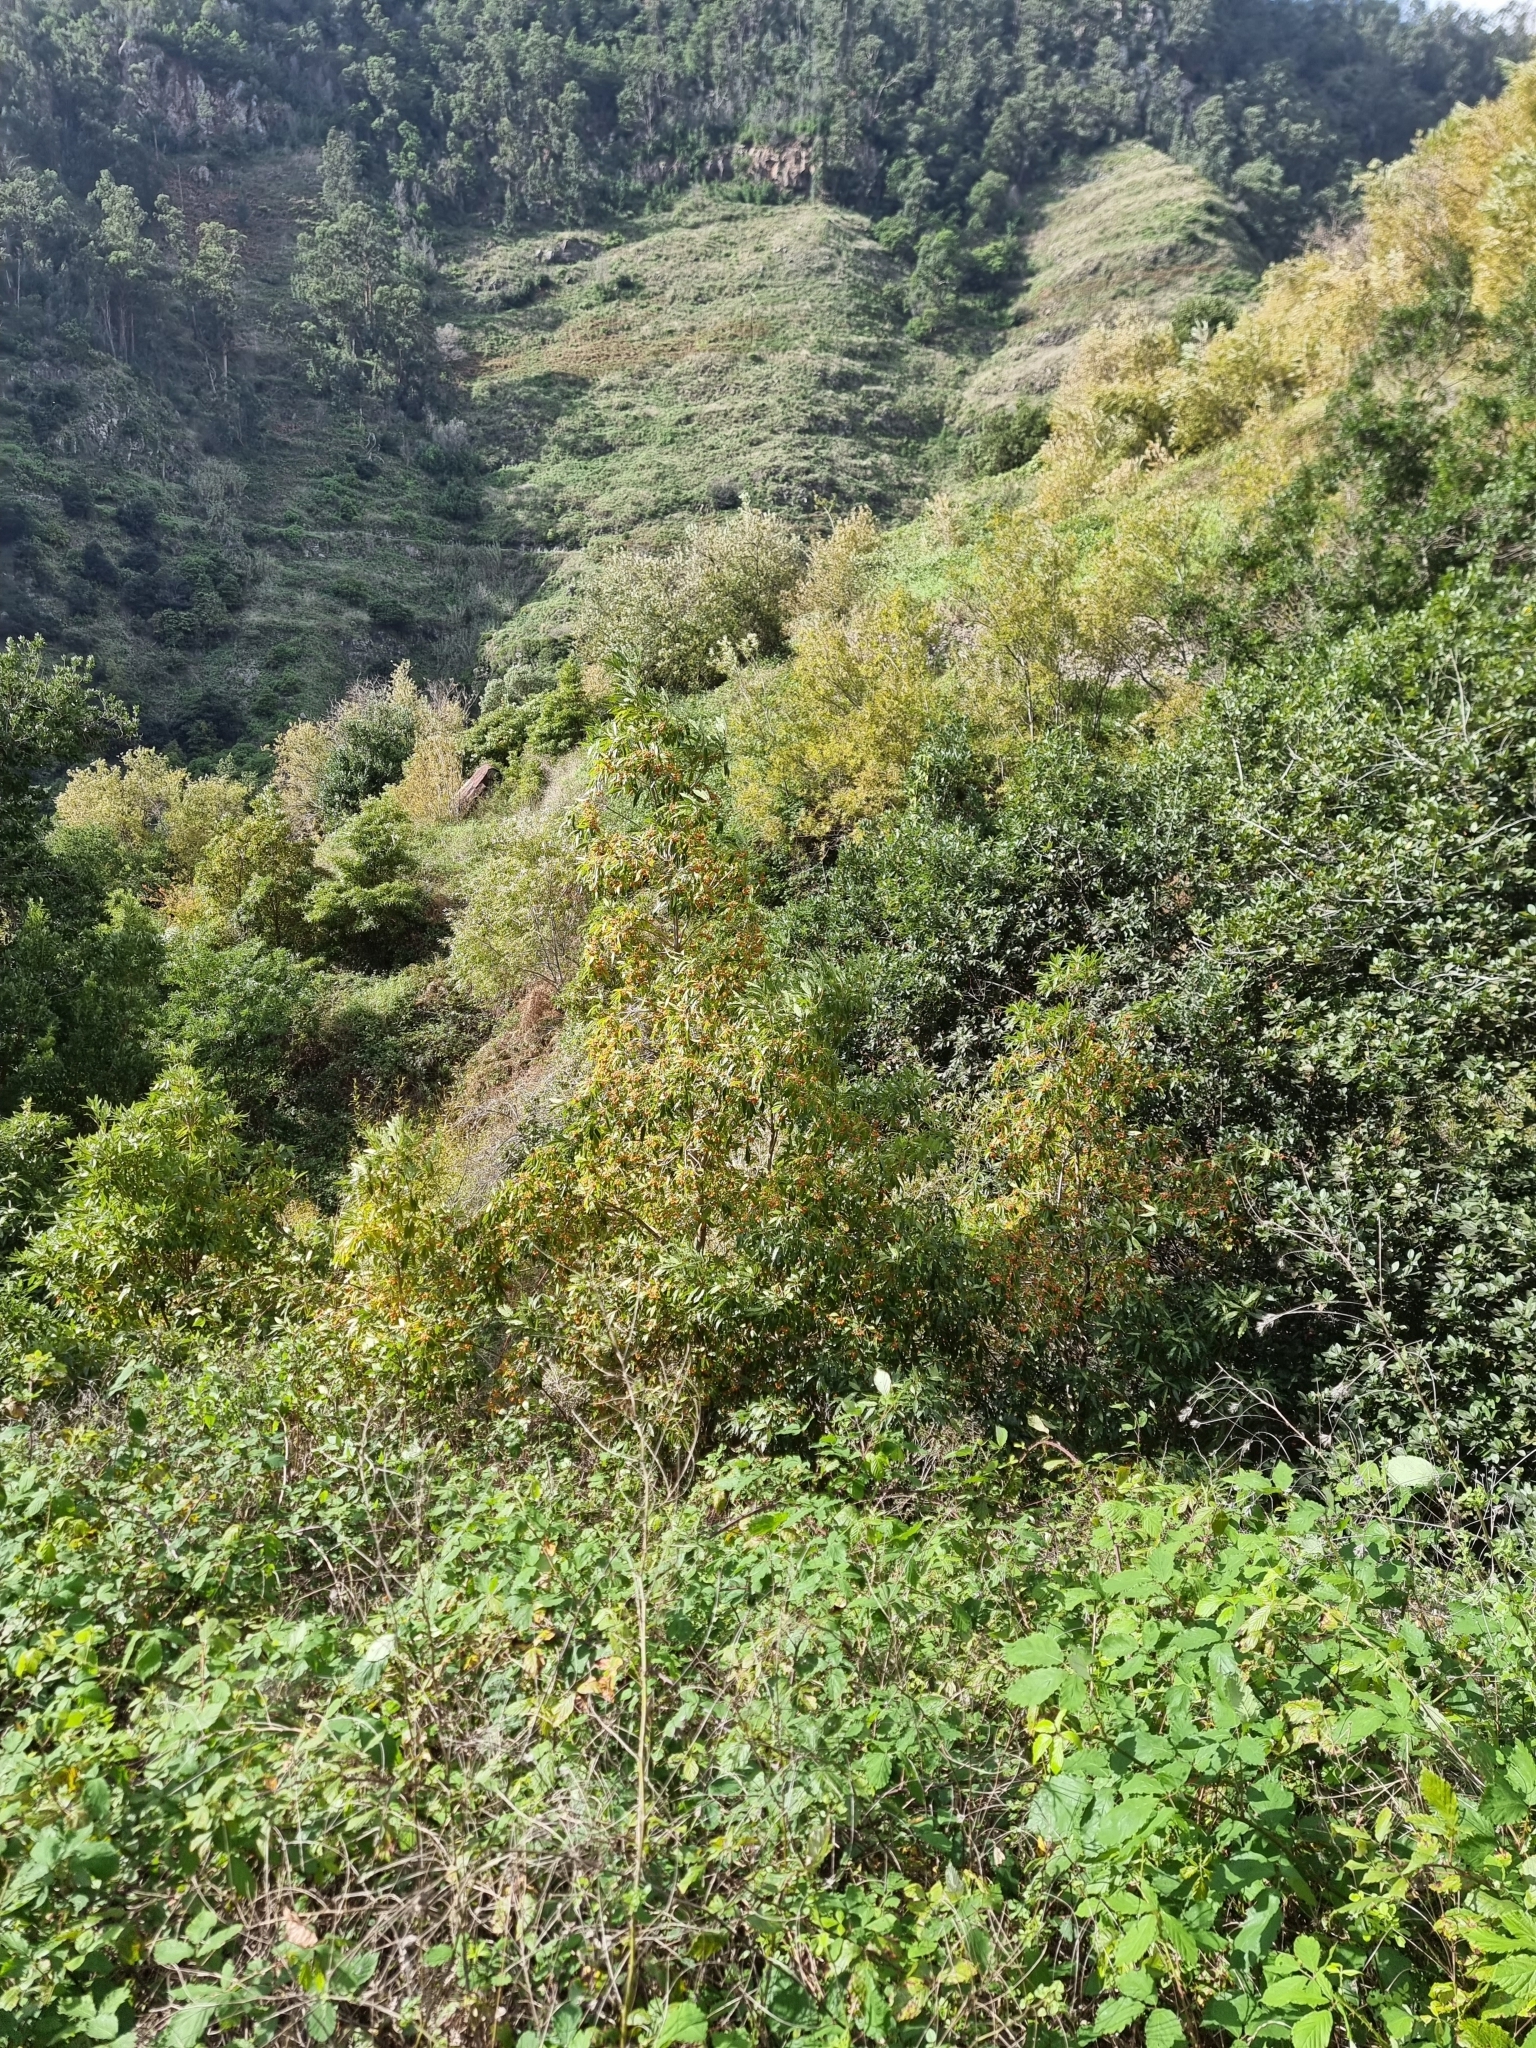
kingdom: Plantae
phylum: Tracheophyta
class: Magnoliopsida
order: Apiales
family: Pittosporaceae
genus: Pittosporum
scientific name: Pittosporum undulatum
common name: Australian cheesewood
